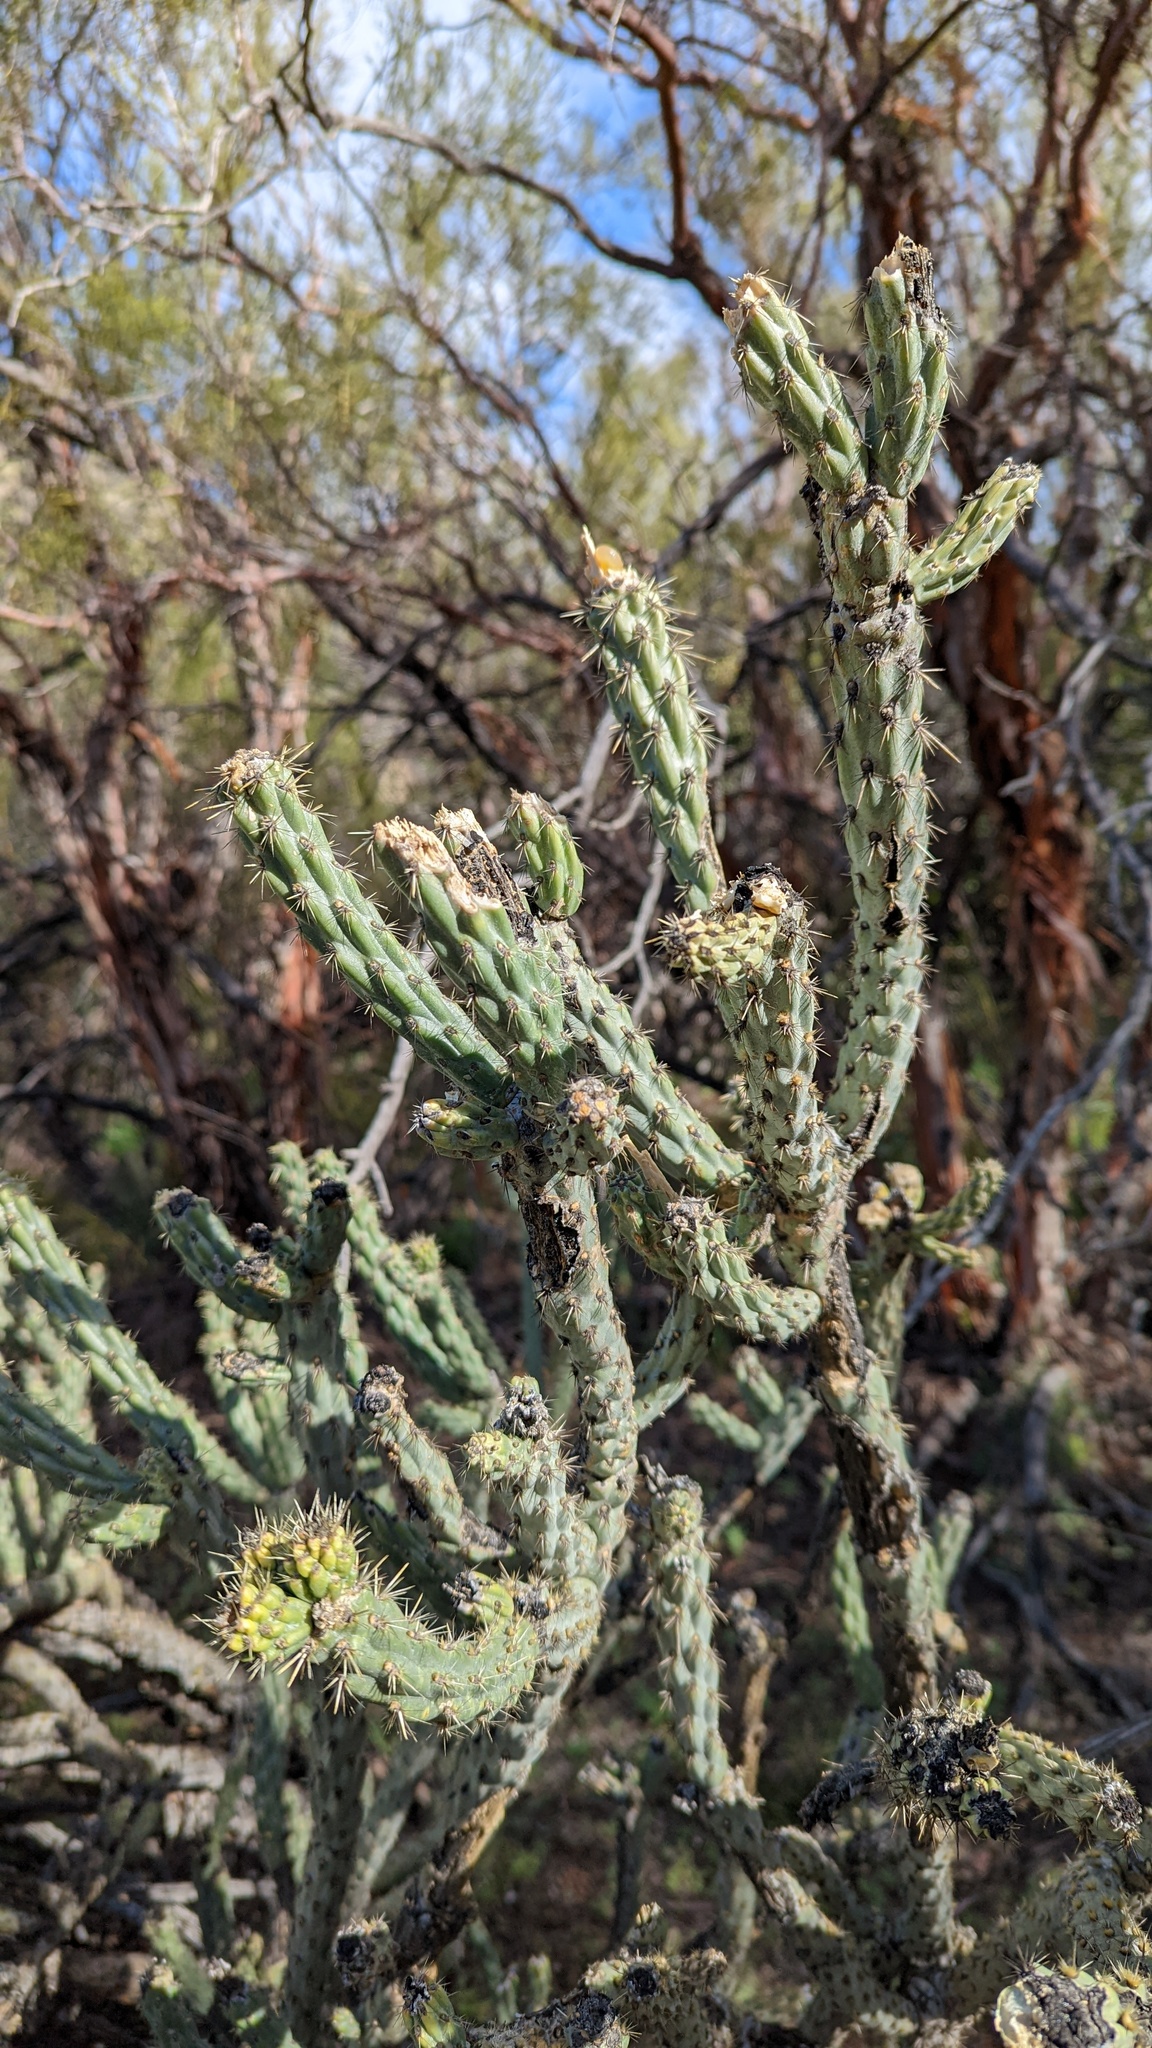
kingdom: Plantae
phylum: Tracheophyta
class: Magnoliopsida
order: Caryophyllales
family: Cactaceae
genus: Cylindropuntia
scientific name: Cylindropuntia bernardina
